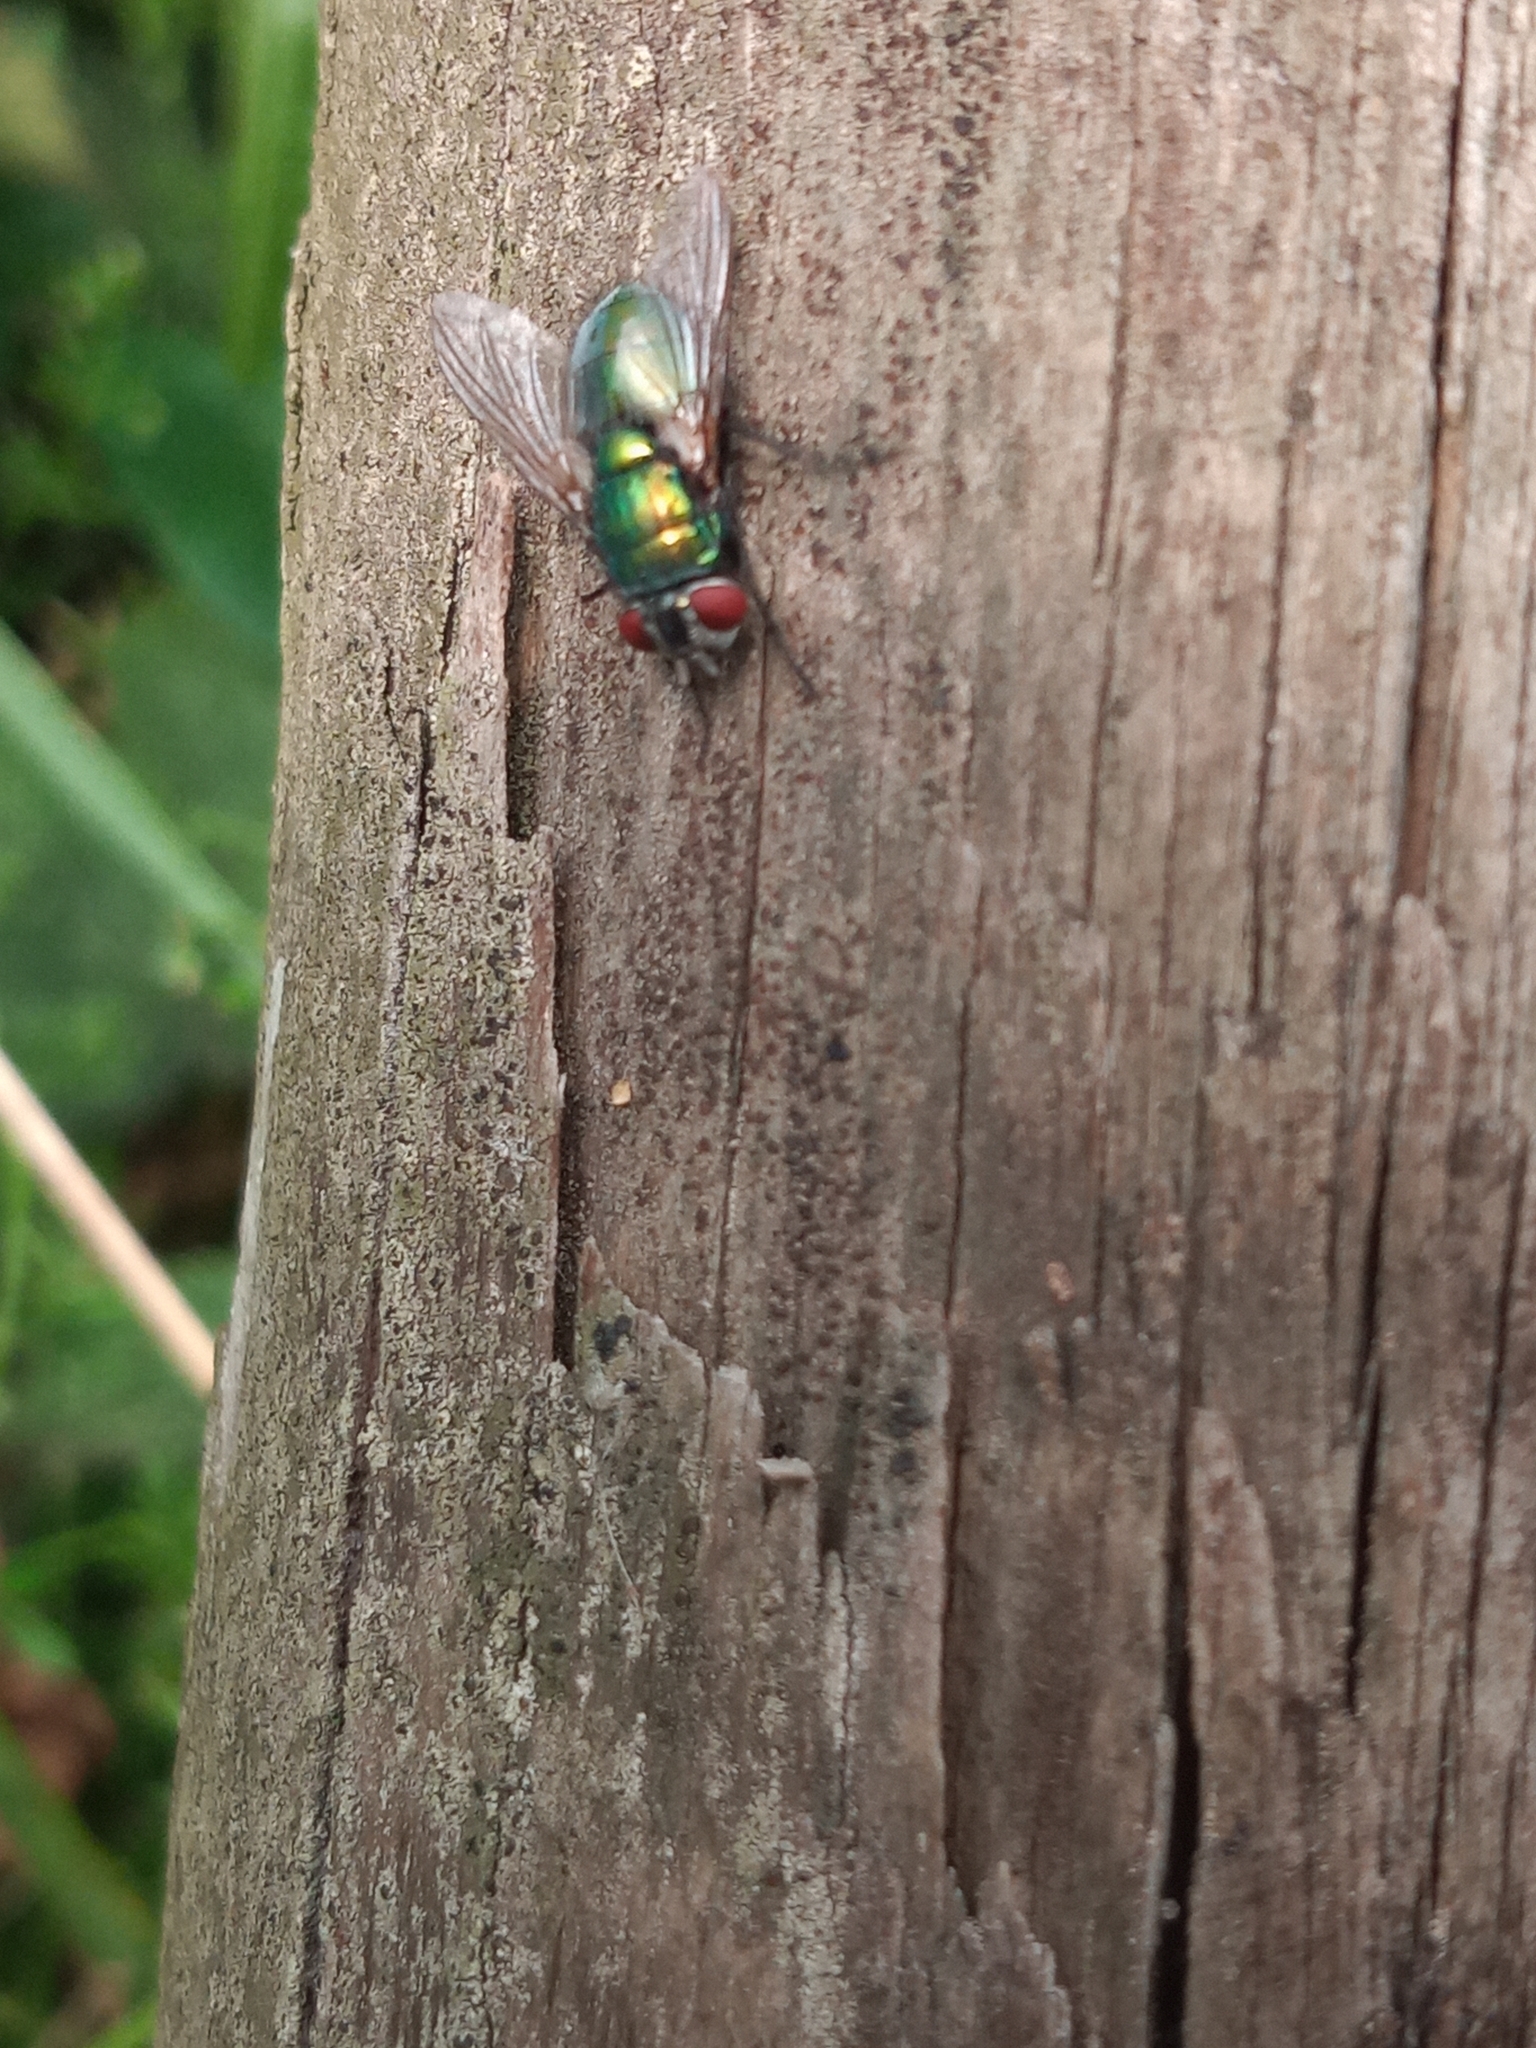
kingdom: Animalia
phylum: Arthropoda
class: Insecta
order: Diptera
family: Calliphoridae
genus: Lucilia
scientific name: Lucilia
